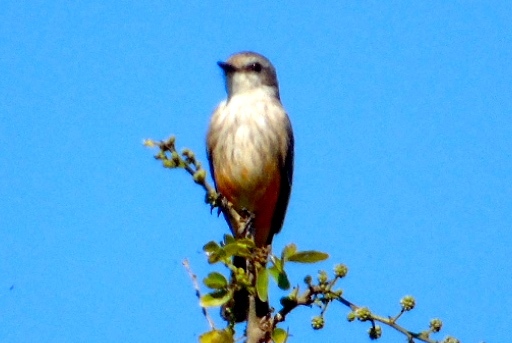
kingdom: Animalia
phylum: Chordata
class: Aves
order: Passeriformes
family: Tyrannidae
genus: Pyrocephalus
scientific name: Pyrocephalus rubinus
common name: Vermilion flycatcher
